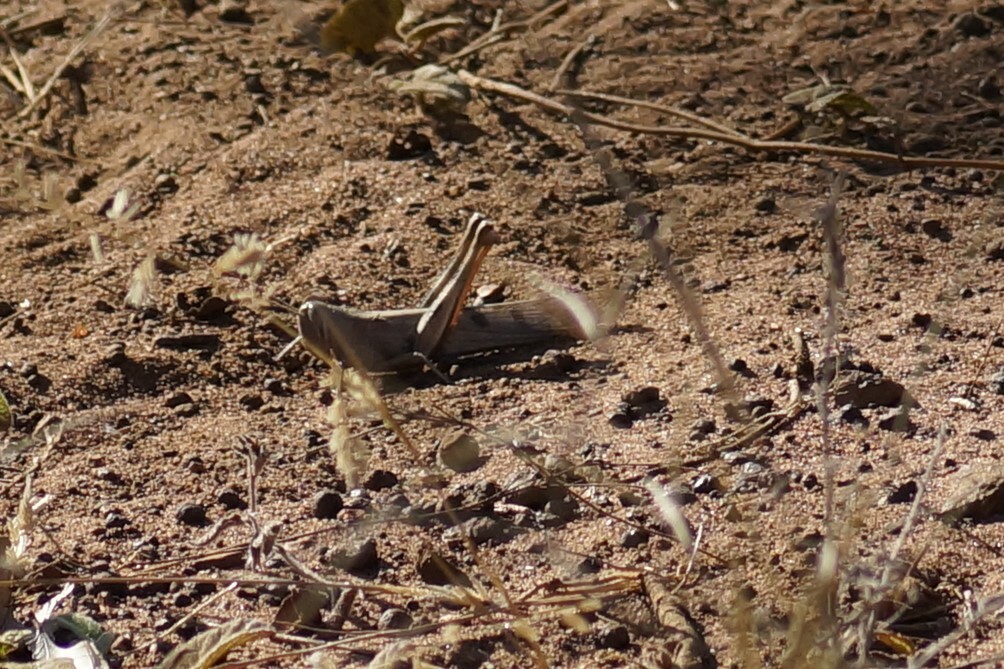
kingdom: Animalia
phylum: Arthropoda
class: Insecta
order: Orthoptera
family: Acrididae
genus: Austracris
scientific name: Austracris basalis
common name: Spotted spur-throated locust
